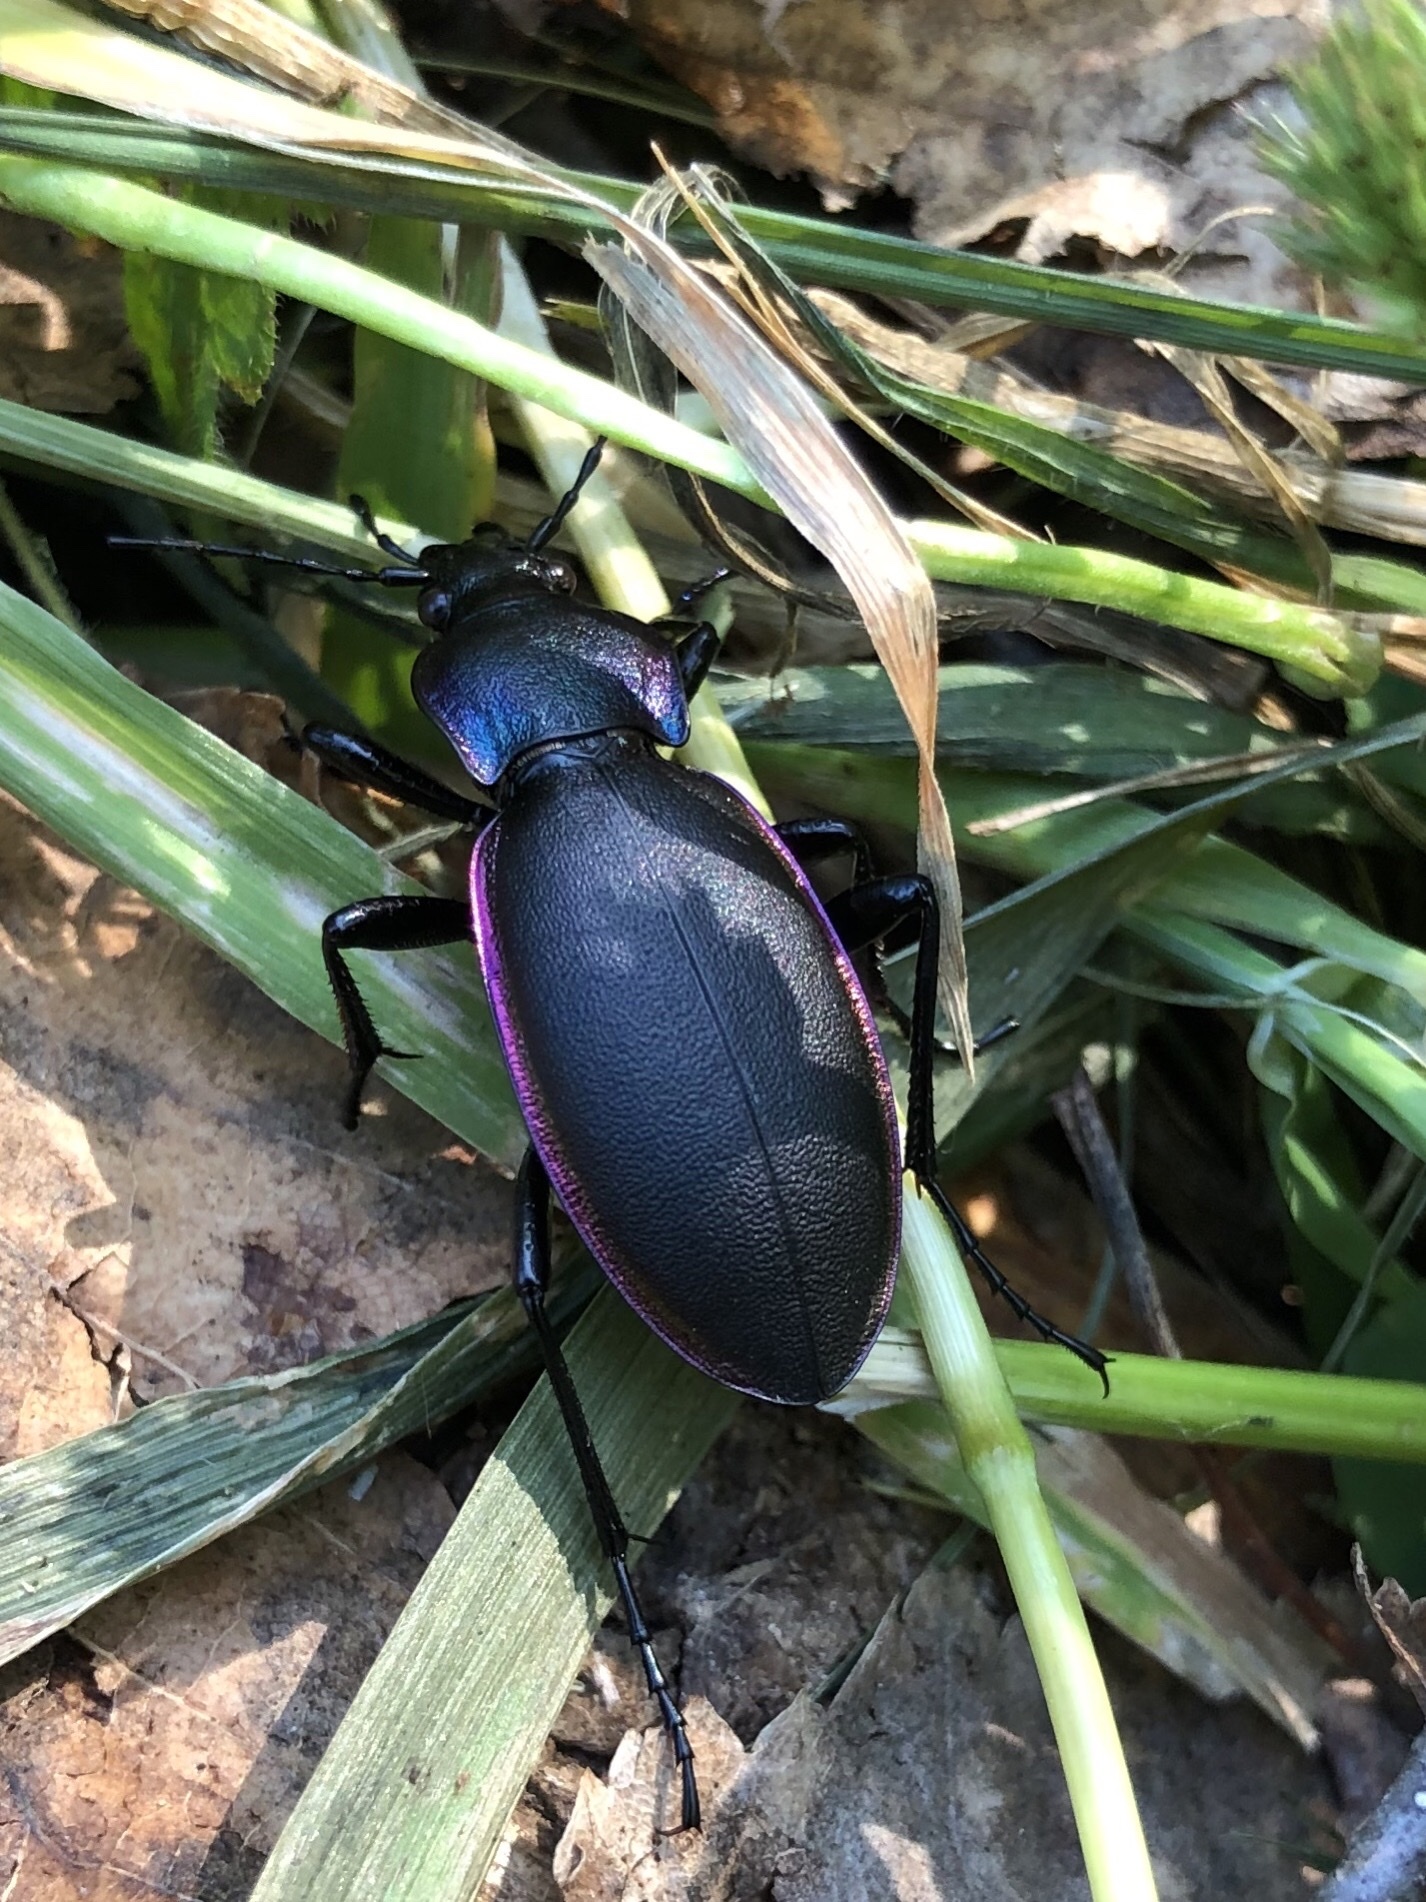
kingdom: Animalia
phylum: Arthropoda
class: Insecta
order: Coleoptera
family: Carabidae
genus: Carabus
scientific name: Carabus violaceus
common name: Violet ground beetle
